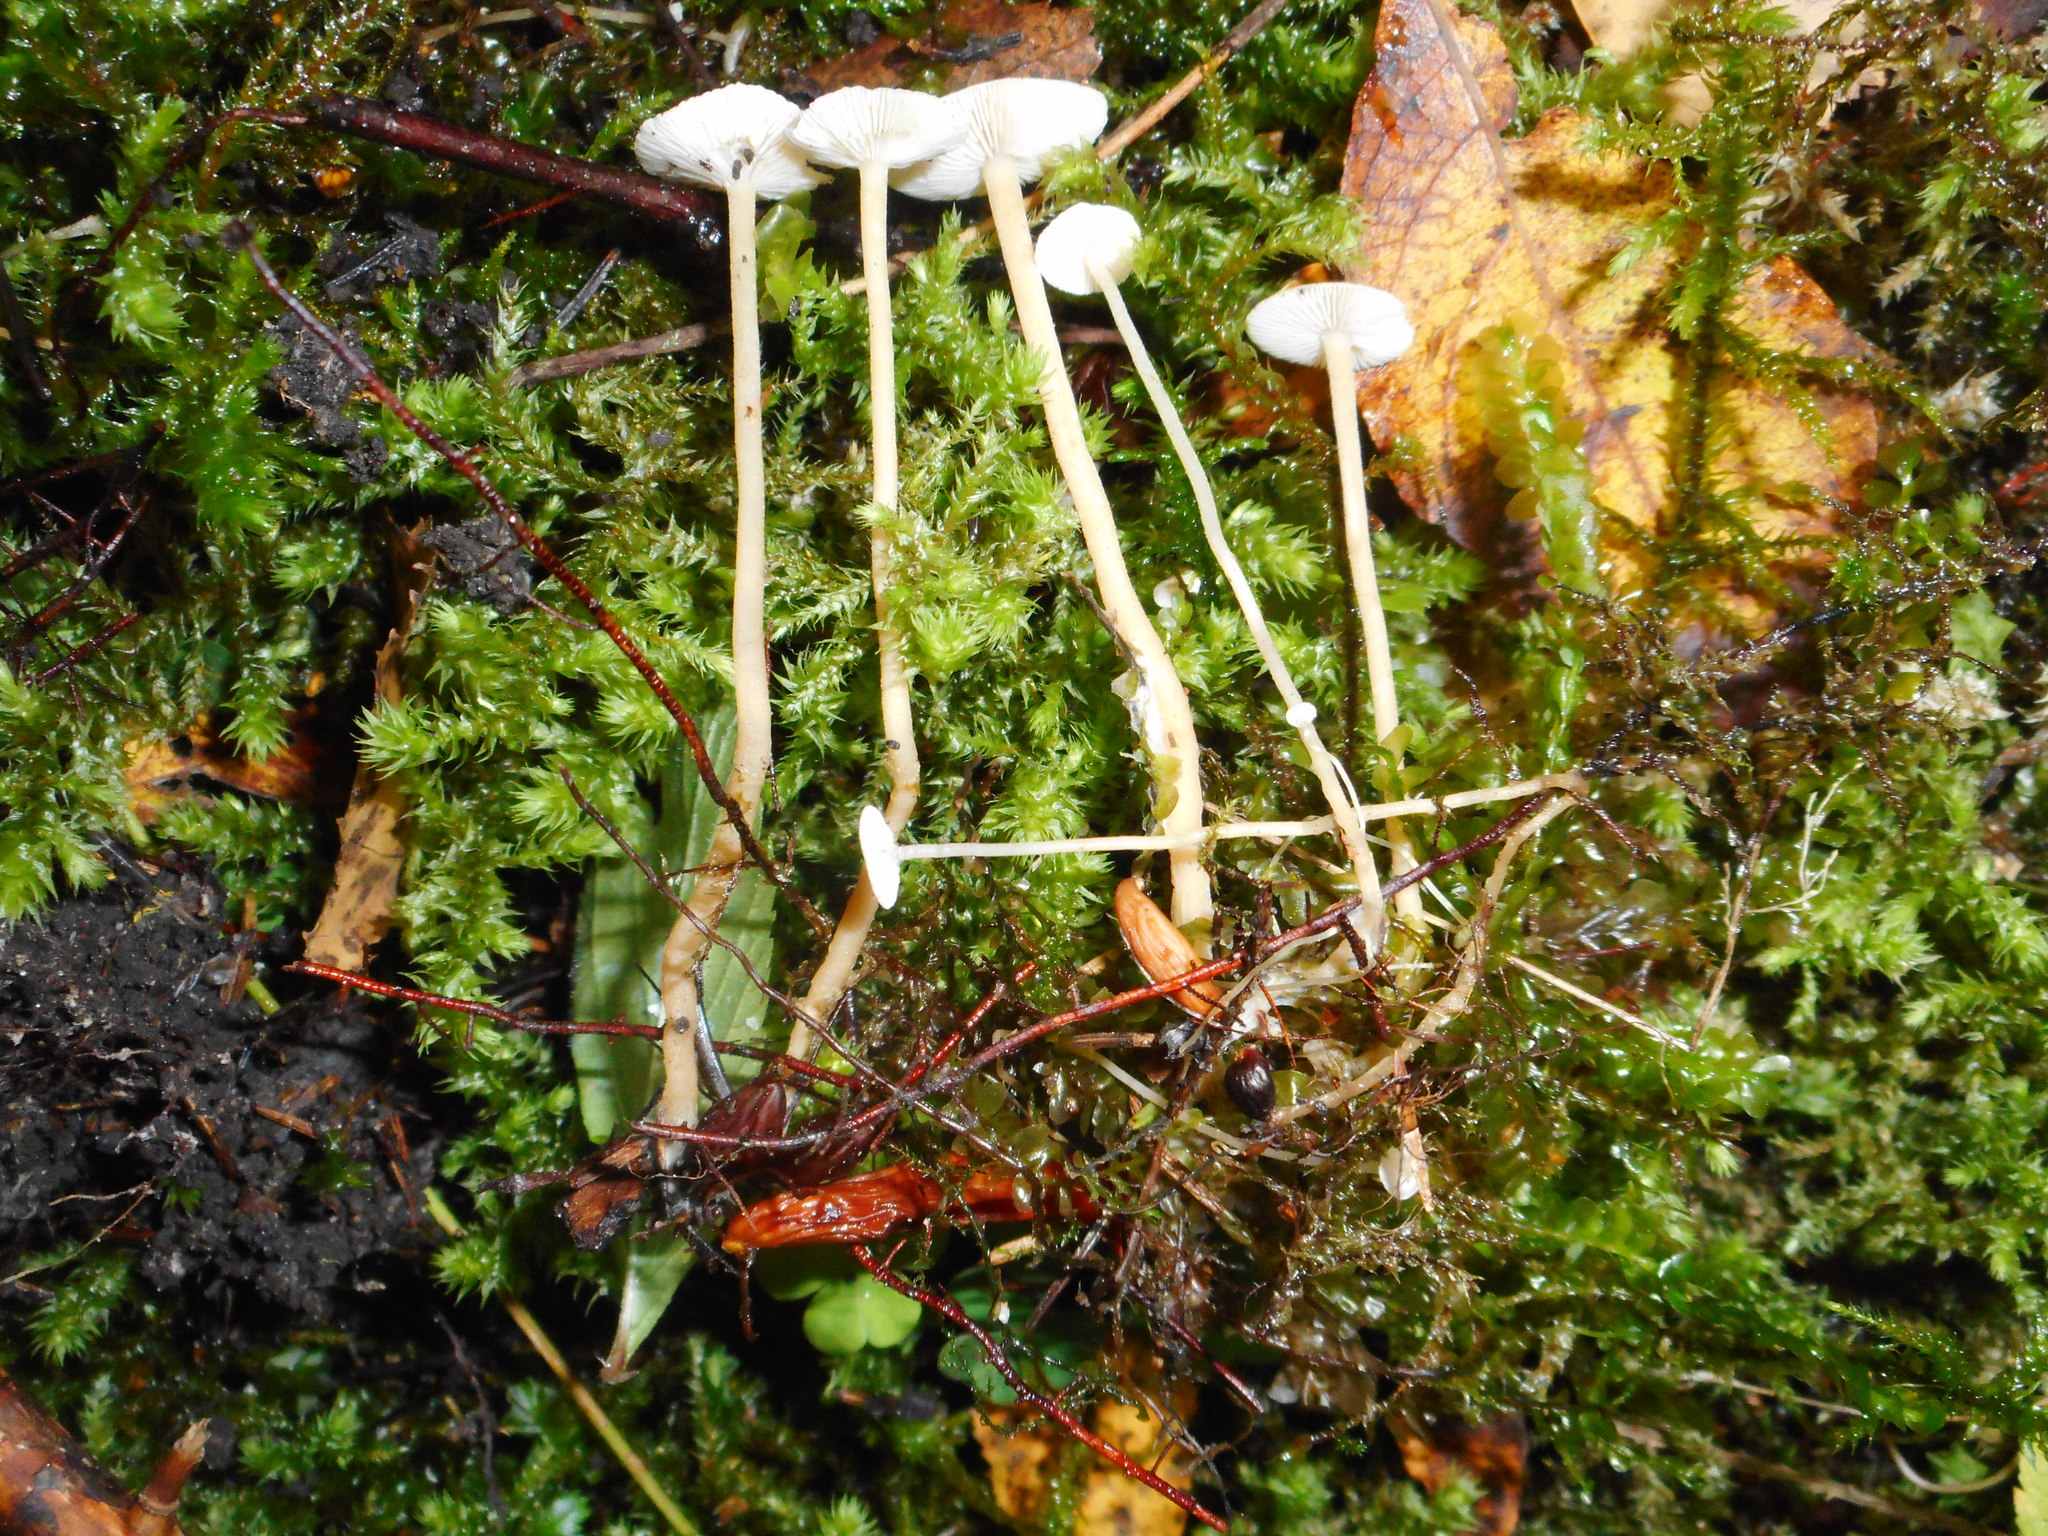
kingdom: Fungi
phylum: Basidiomycota
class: Agaricomycetes
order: Agaricales
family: Tricholomataceae
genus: Collybia
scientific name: Collybia tuberosa
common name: Lentil shanklet
